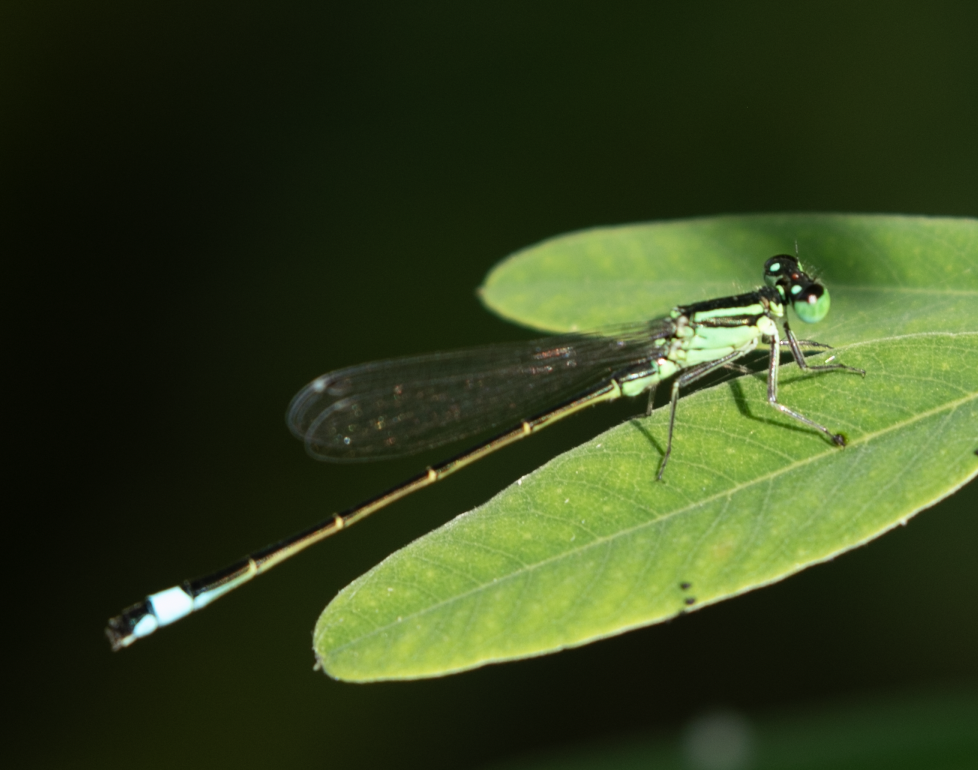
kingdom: Animalia
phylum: Arthropoda
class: Insecta
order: Odonata
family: Coenagrionidae
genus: Ischnura
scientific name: Ischnura elegans
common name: Blue-tailed damselfly
